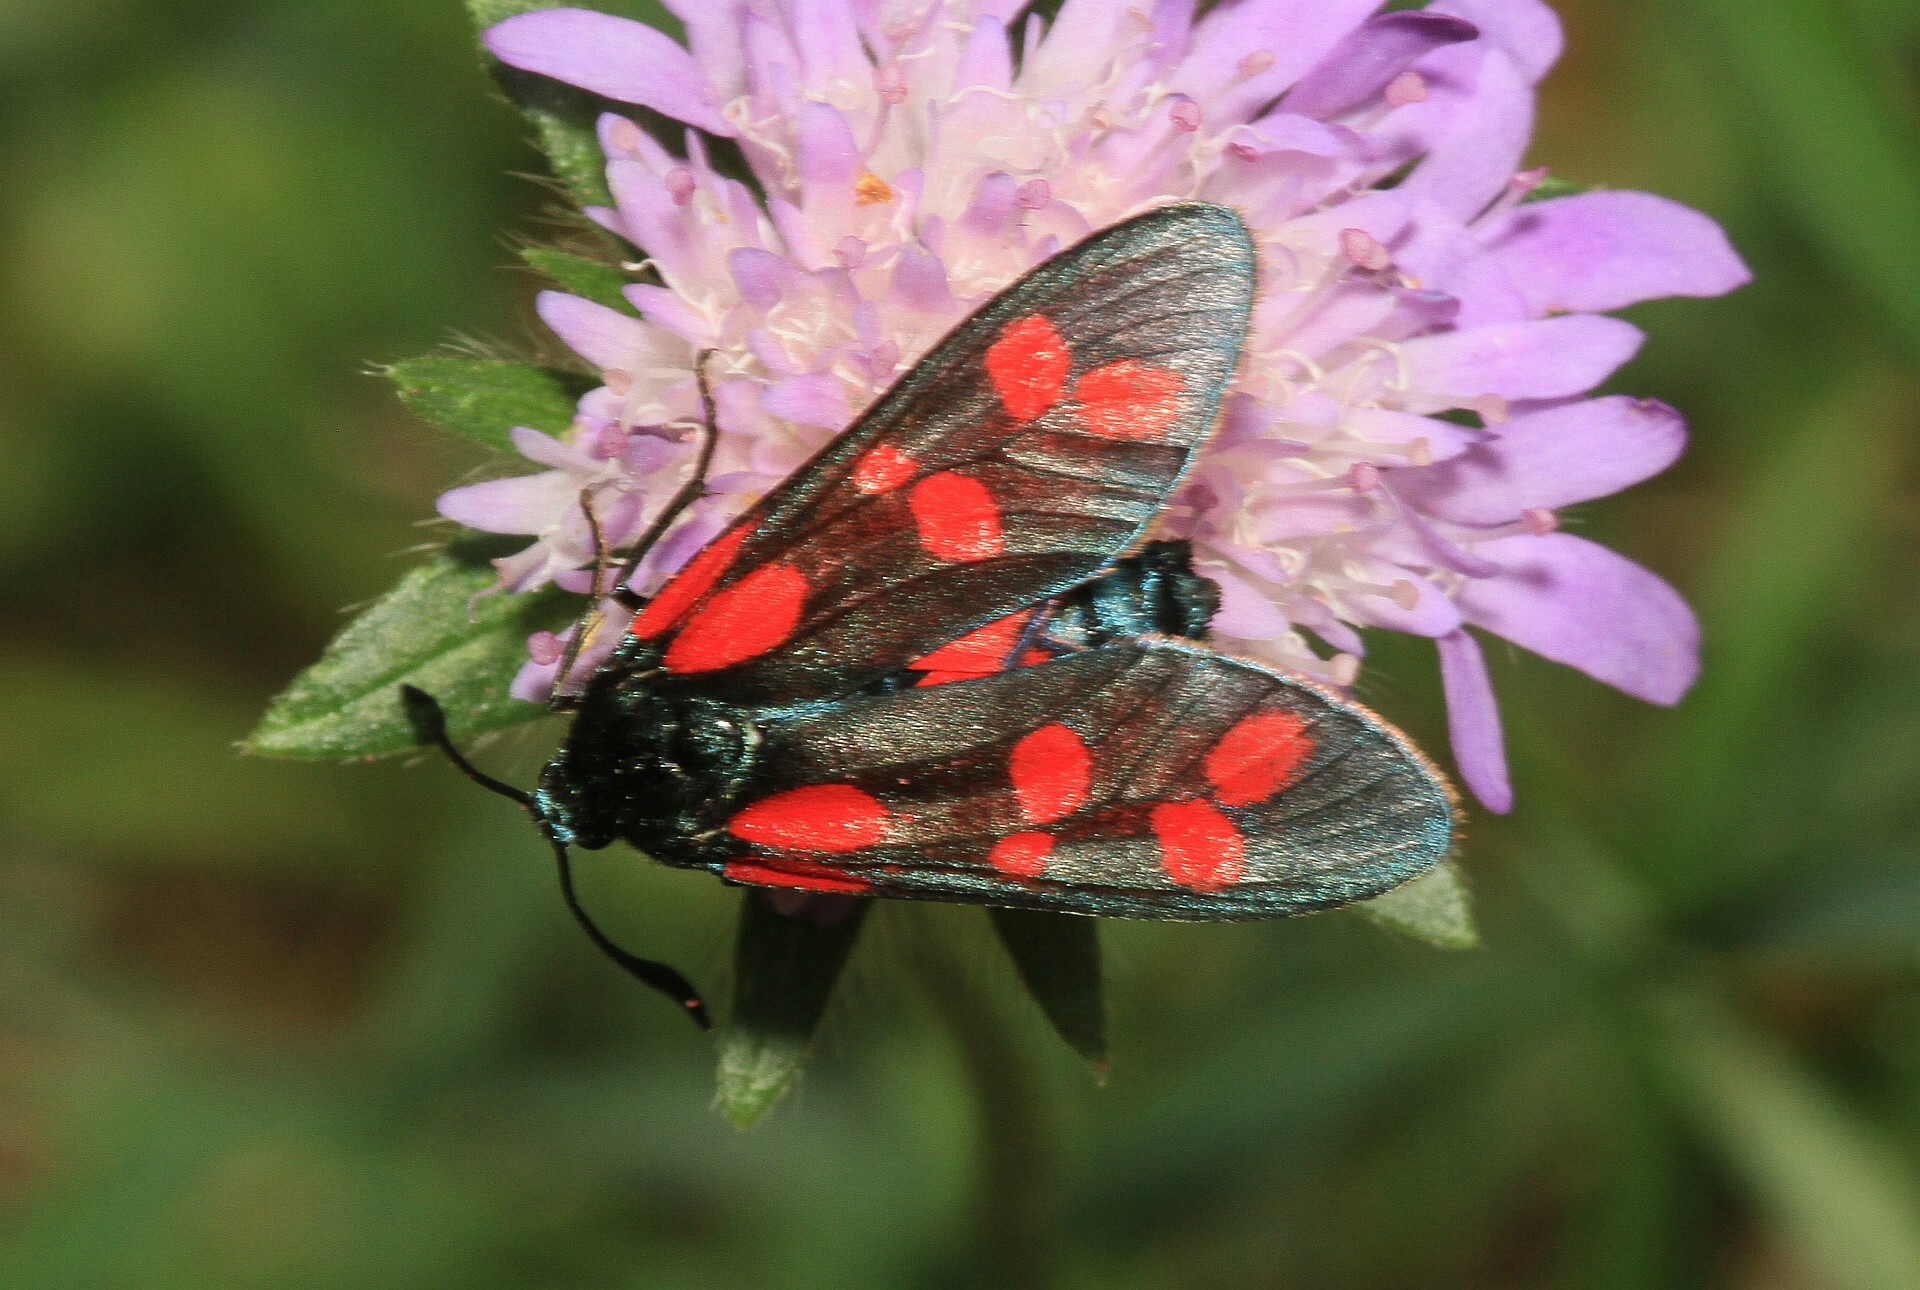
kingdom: Animalia
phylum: Arthropoda
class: Insecta
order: Lepidoptera
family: Zygaenidae
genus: Zygaena
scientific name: Zygaena filipendulae
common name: Six-spot burnet
